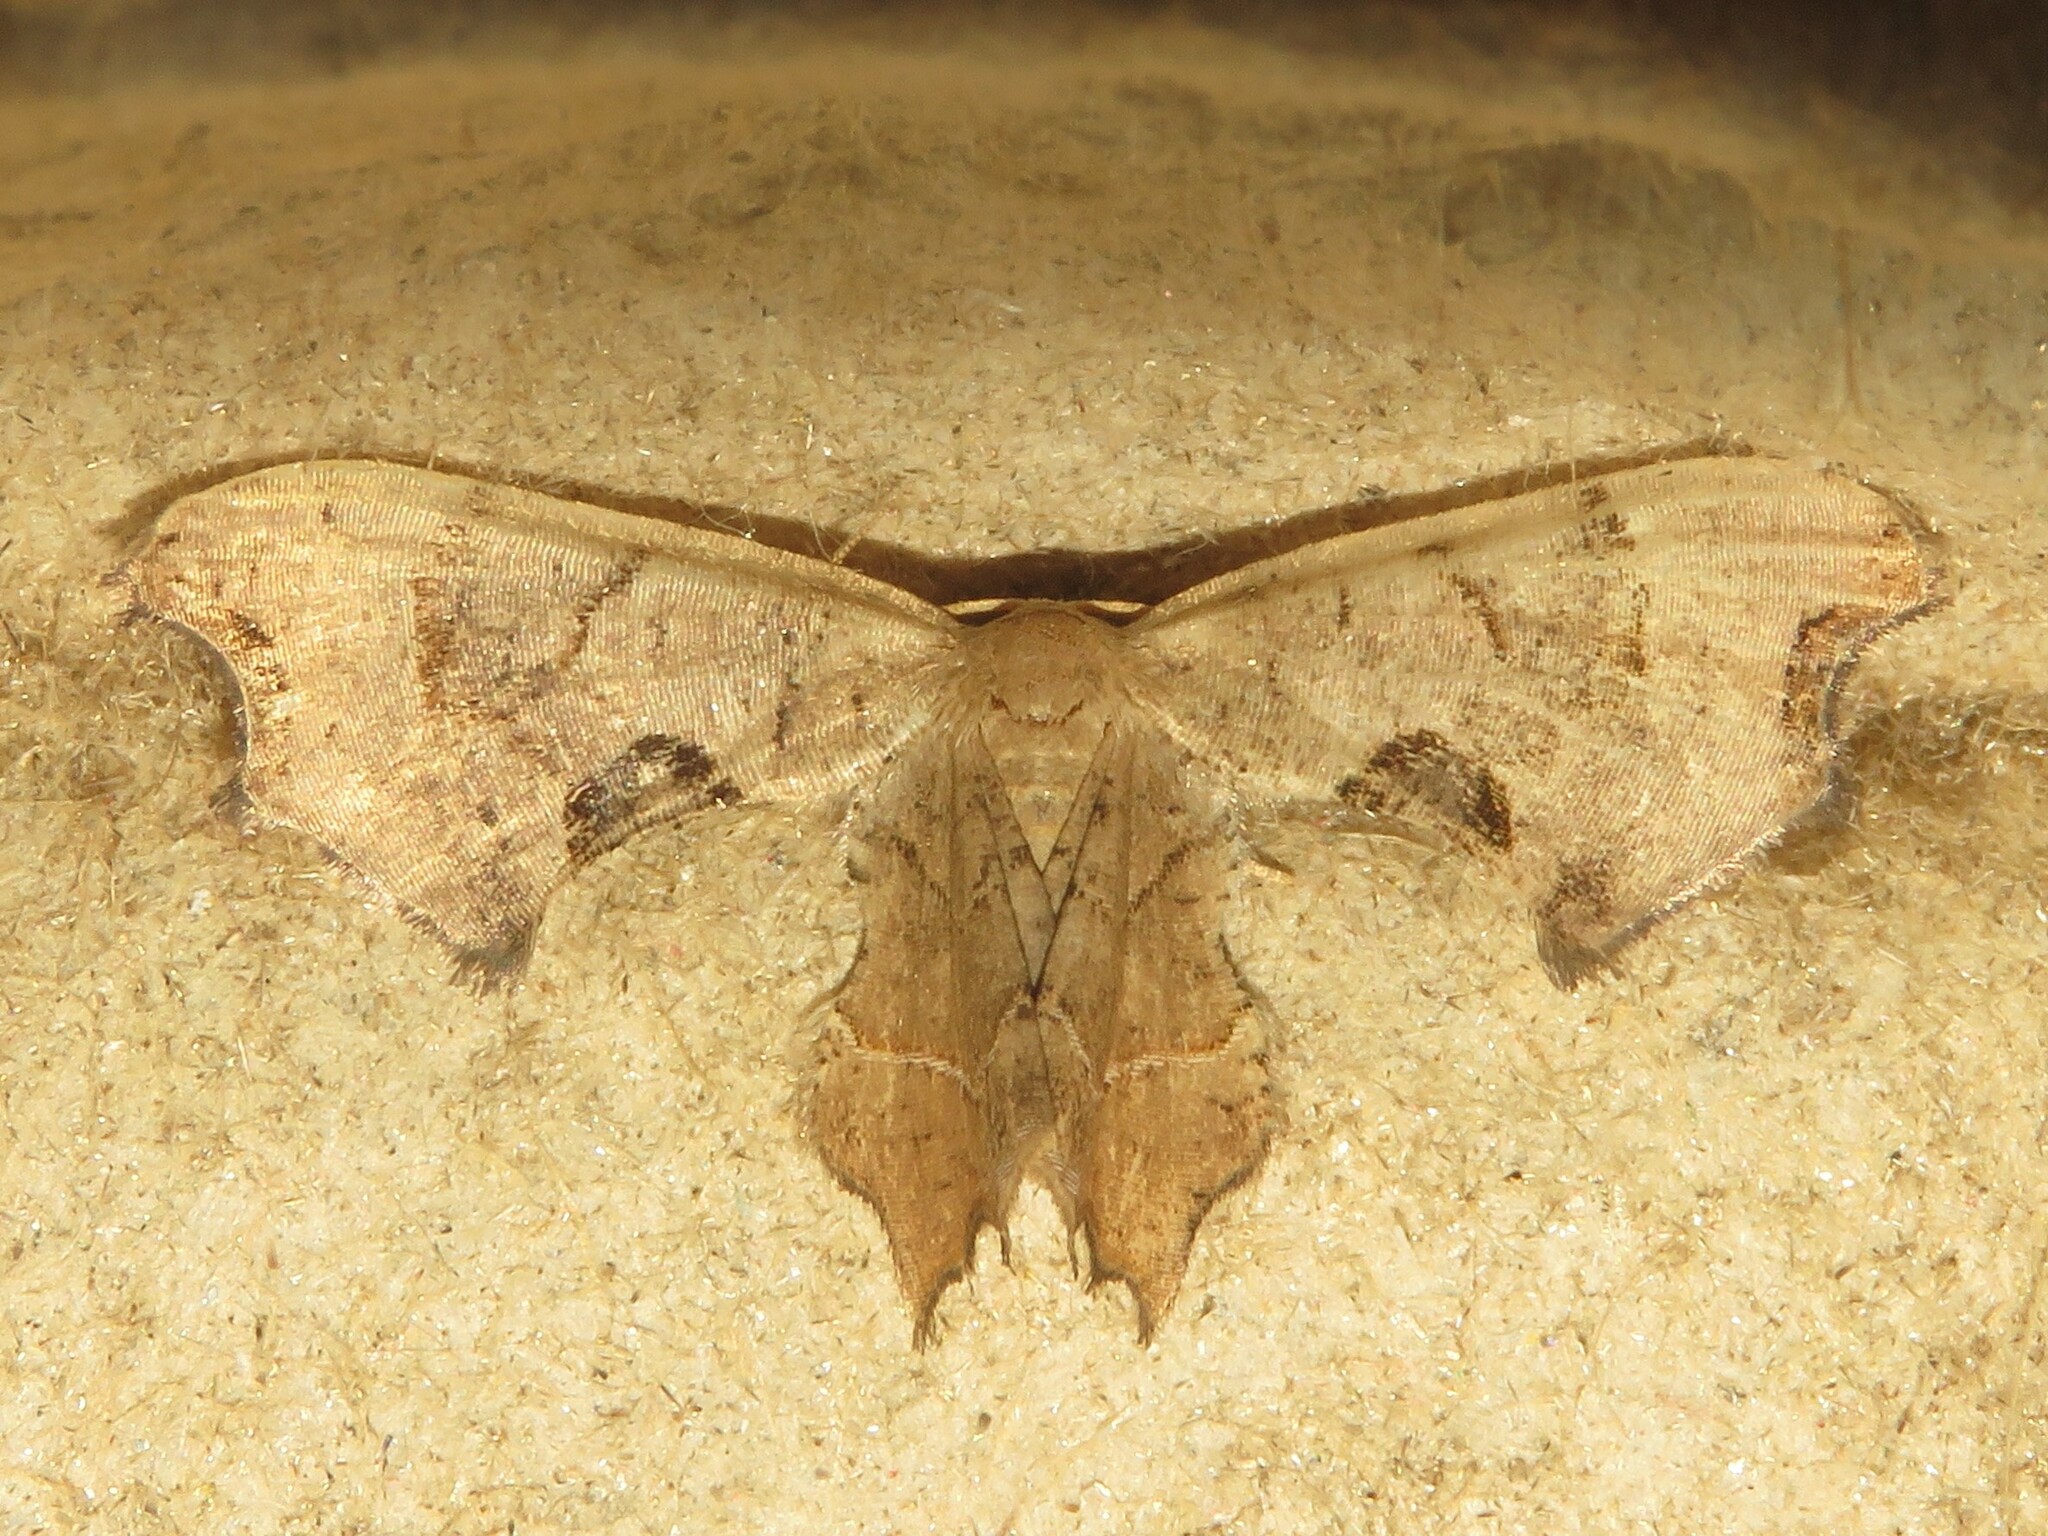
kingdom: Animalia
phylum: Arthropoda
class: Insecta
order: Lepidoptera
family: Uraniidae
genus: Epiplema
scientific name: Epiplema Calledapteryx dryopterata
